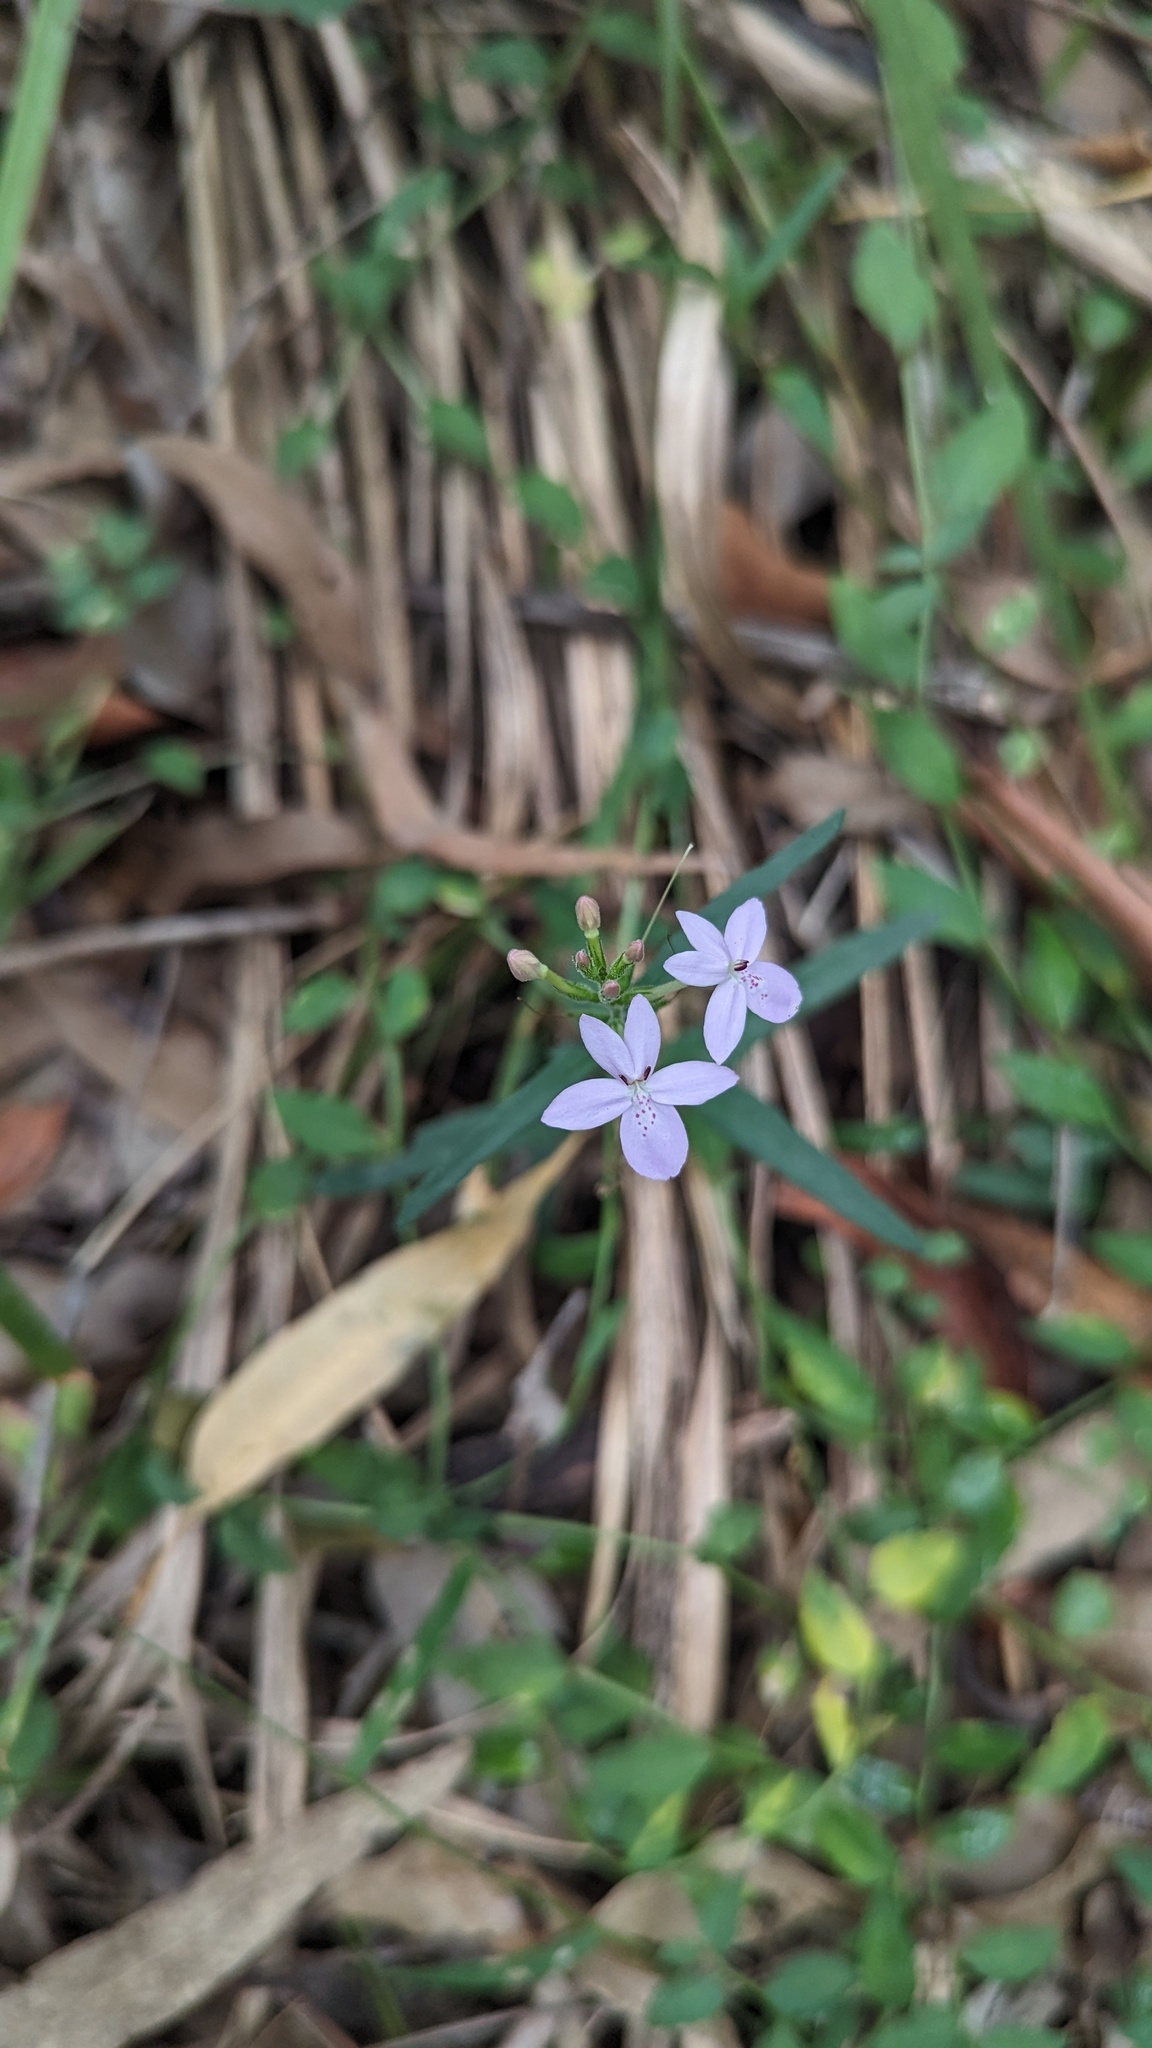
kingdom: Plantae
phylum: Tracheophyta
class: Magnoliopsida
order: Lamiales
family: Acanthaceae
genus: Pseuderanthemum
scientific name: Pseuderanthemum variabile
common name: Night and afternoon
